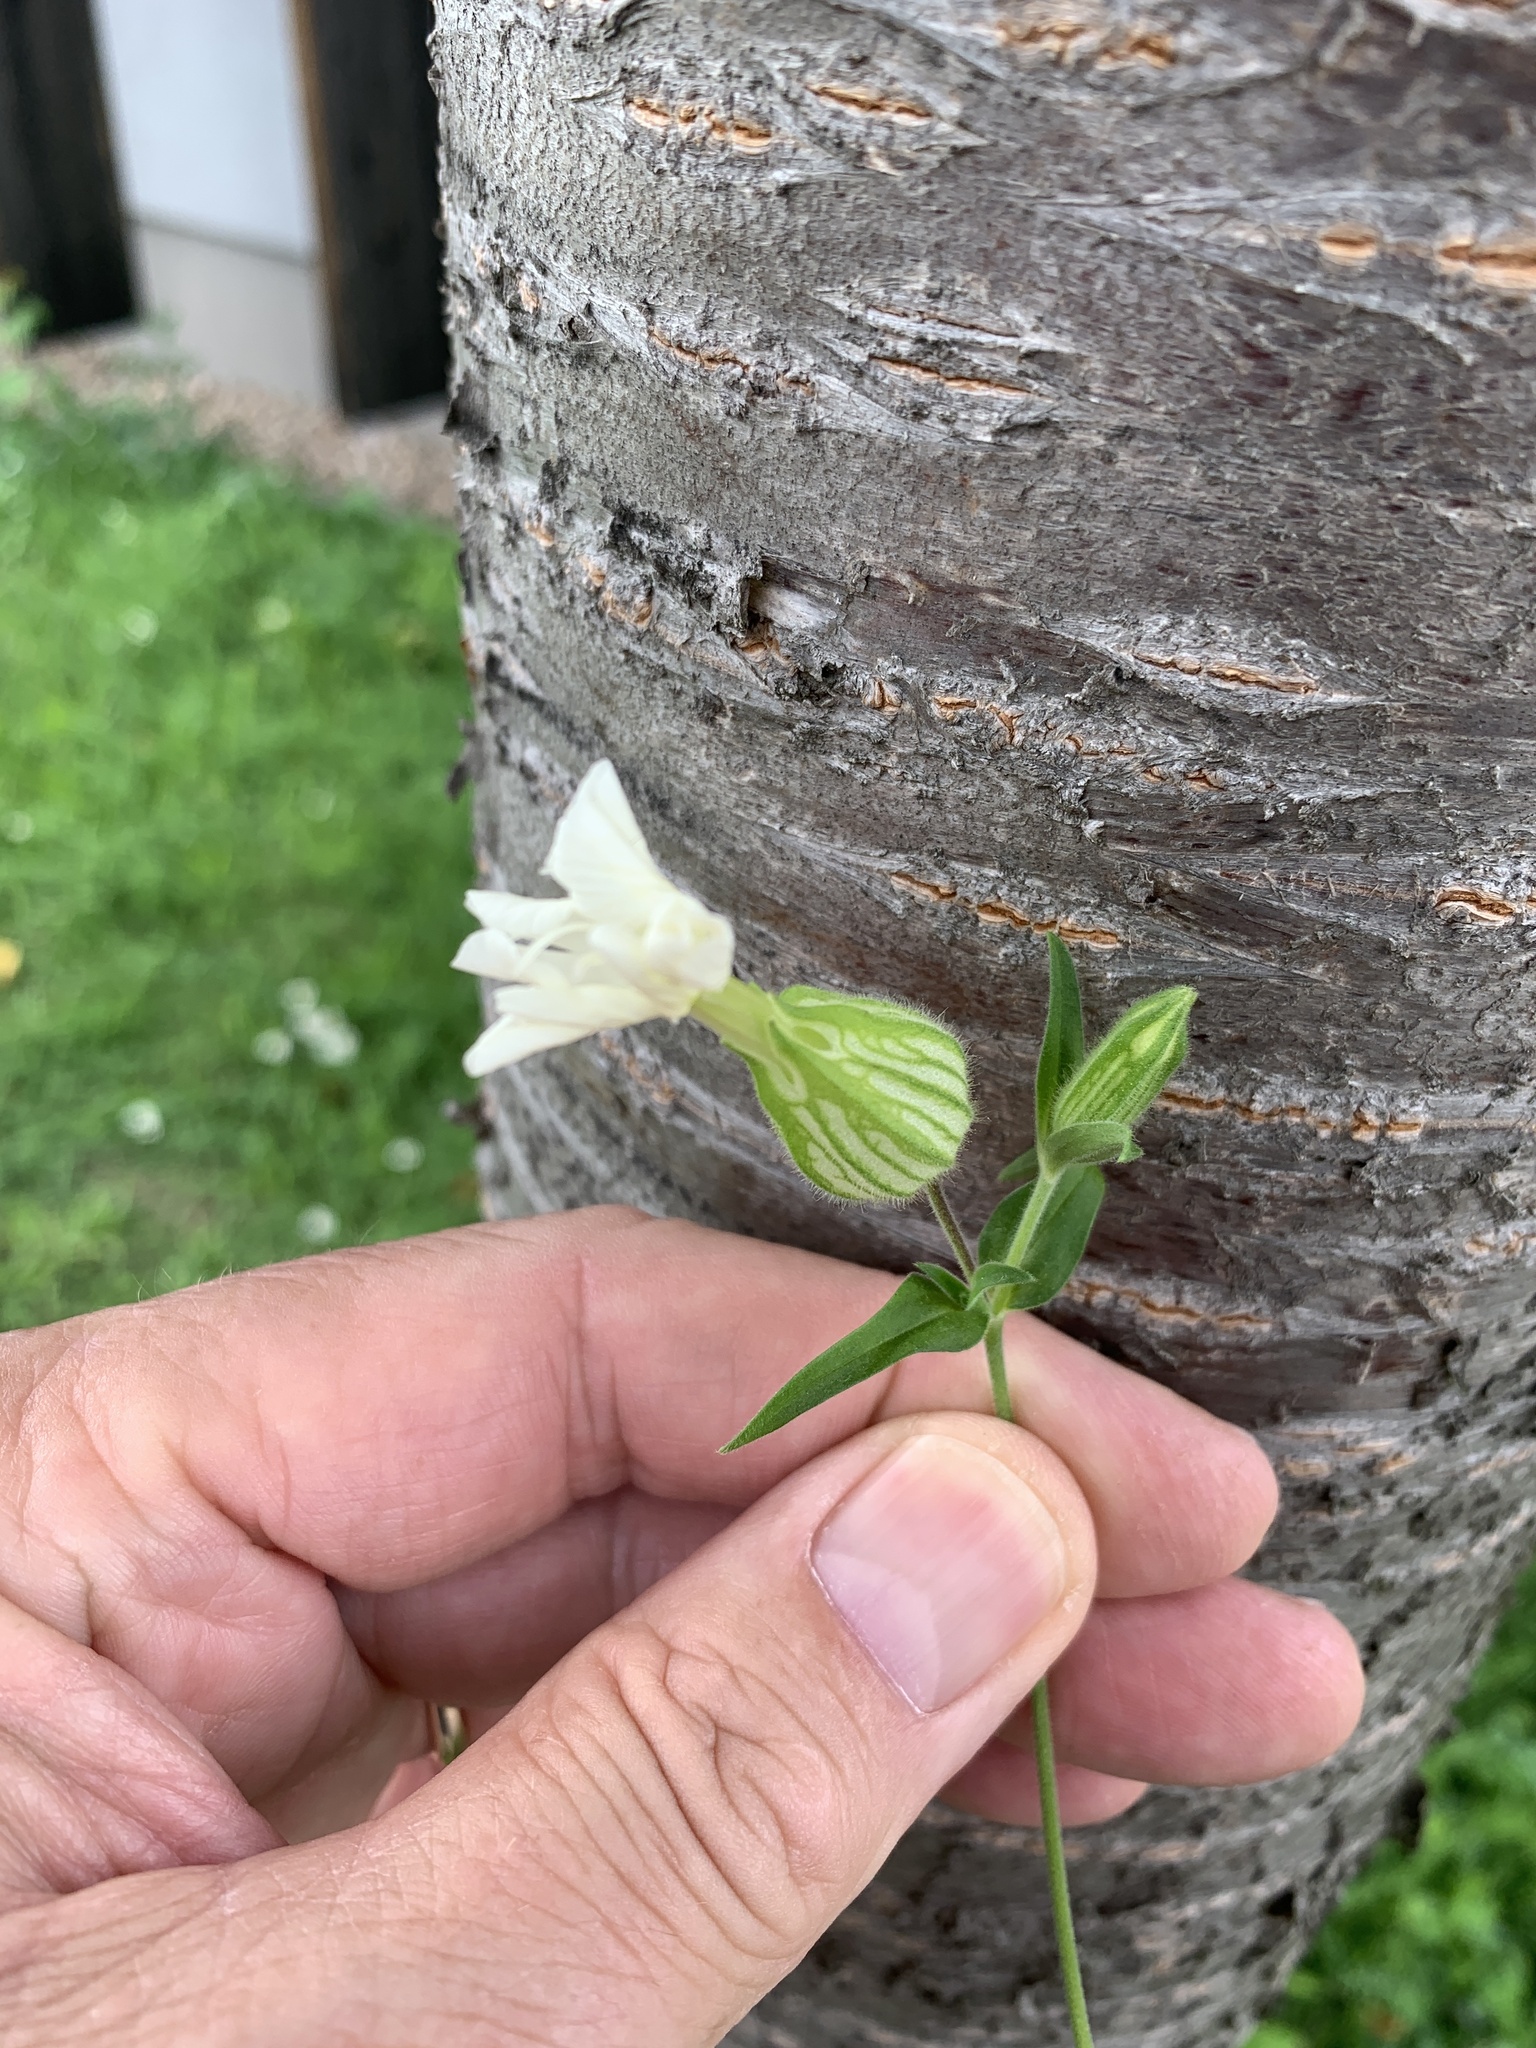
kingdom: Plantae
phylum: Tracheophyta
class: Magnoliopsida
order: Caryophyllales
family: Caryophyllaceae
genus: Silene
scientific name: Silene latifolia
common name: White campion
